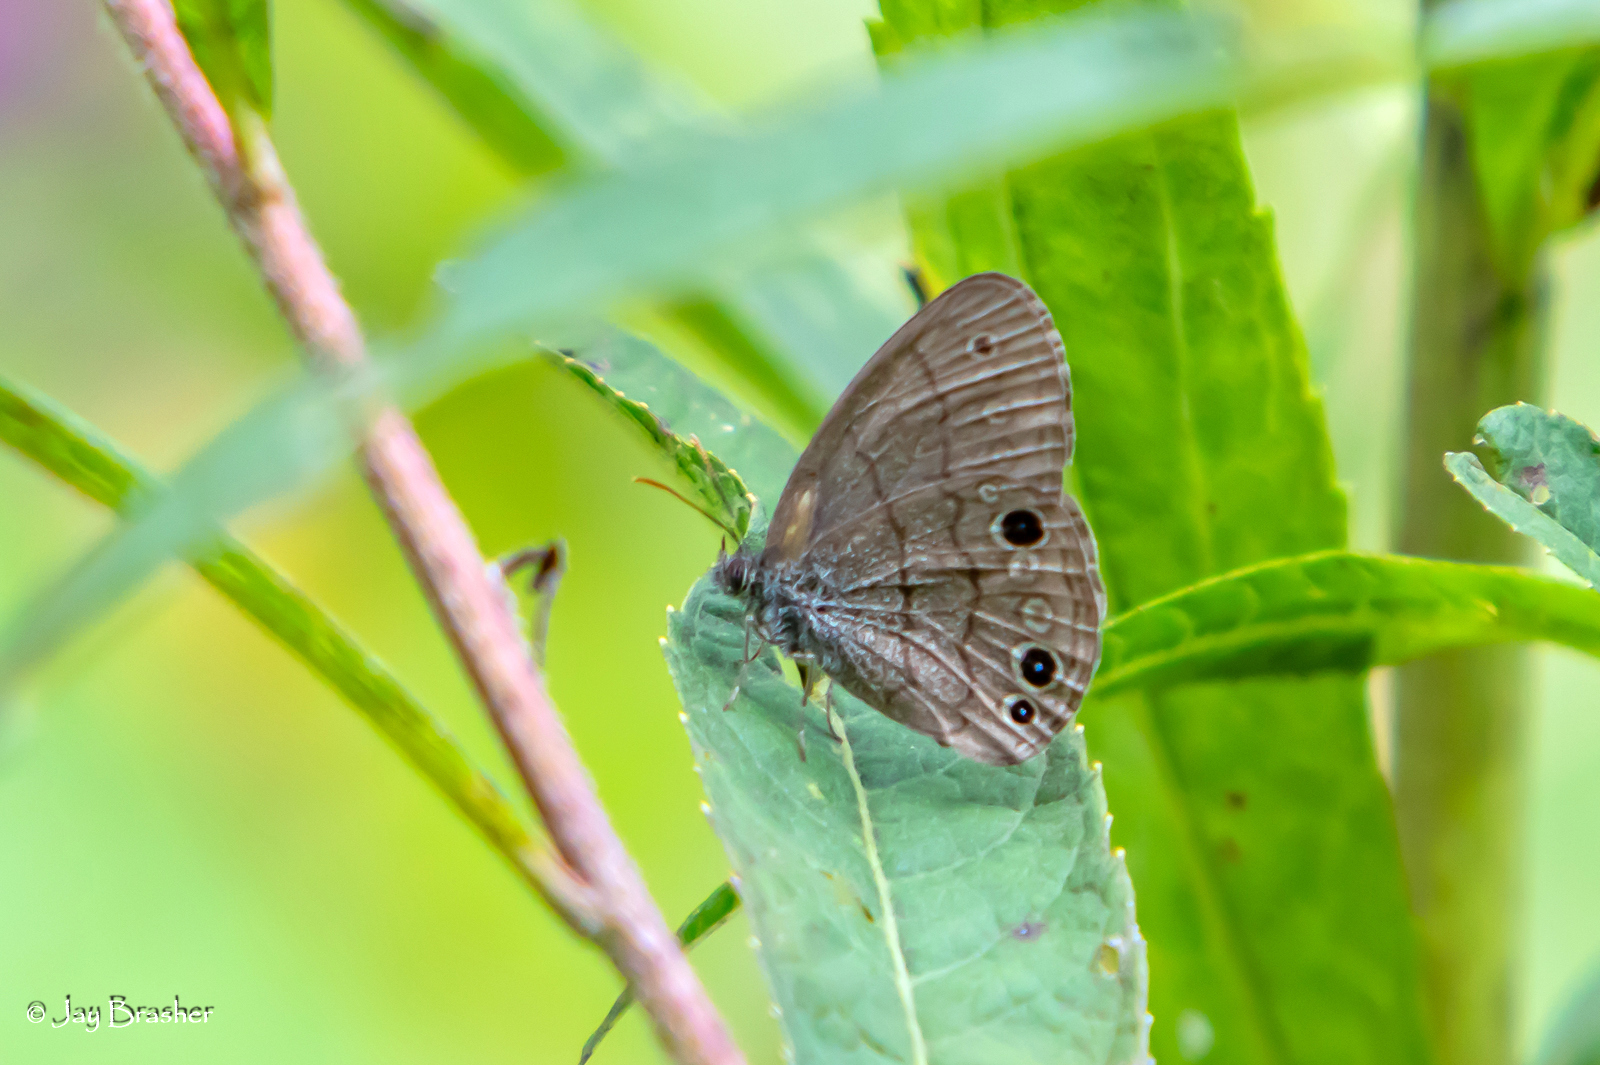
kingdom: Animalia
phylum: Arthropoda
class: Insecta
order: Lepidoptera
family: Nymphalidae
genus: Hermeuptychia
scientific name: Hermeuptychia hermes
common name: Hermes satyr
